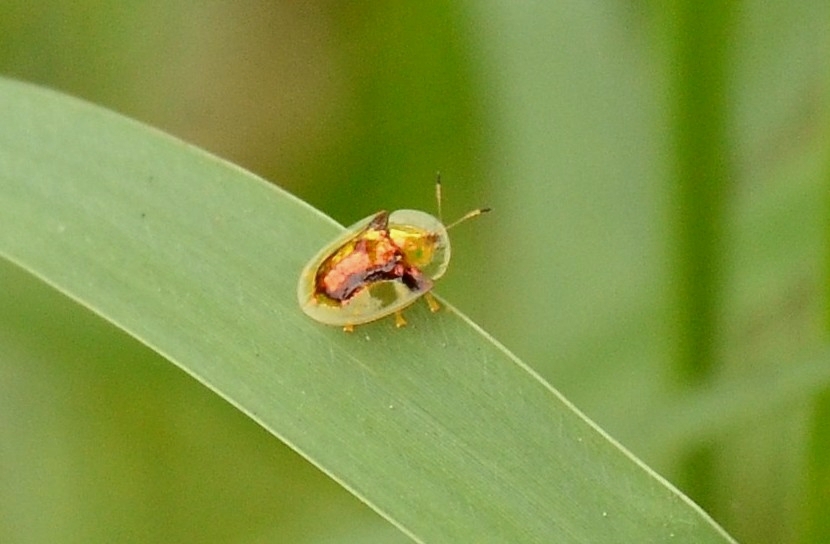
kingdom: Animalia
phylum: Arthropoda
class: Insecta
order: Coleoptera
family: Chrysomelidae
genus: Aspidimorpha
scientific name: Aspidimorpha furcata
